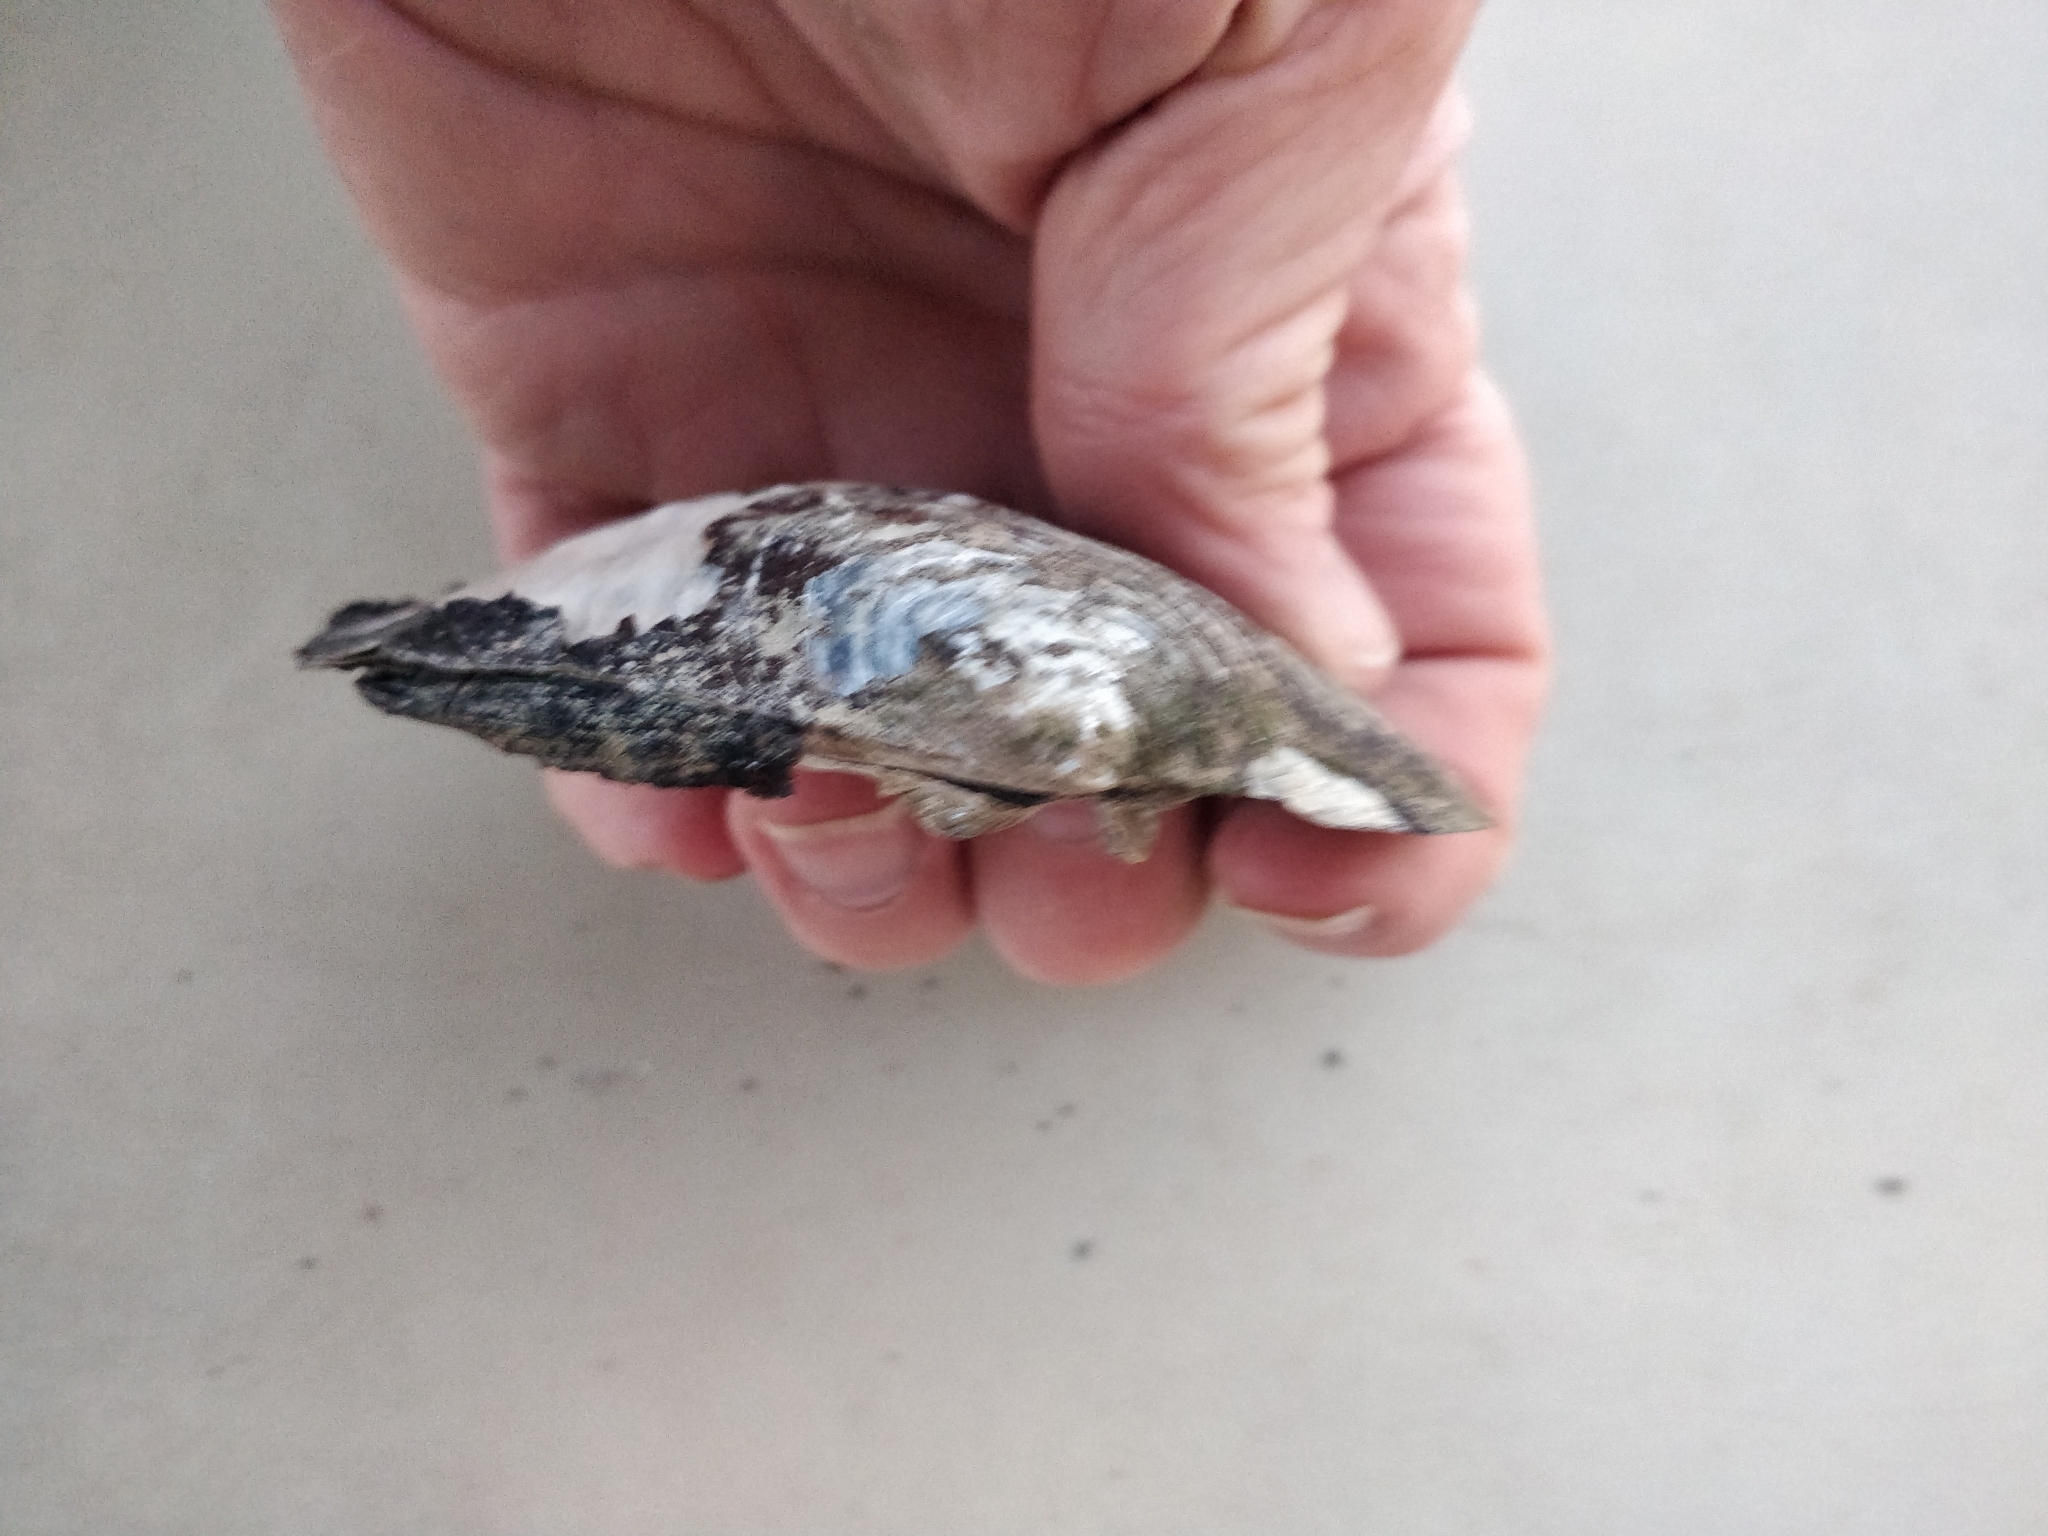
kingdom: Animalia
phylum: Mollusca
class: Bivalvia
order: Unionida
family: Unionidae
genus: Amblema
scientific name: Amblema plicata
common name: Threeridge
